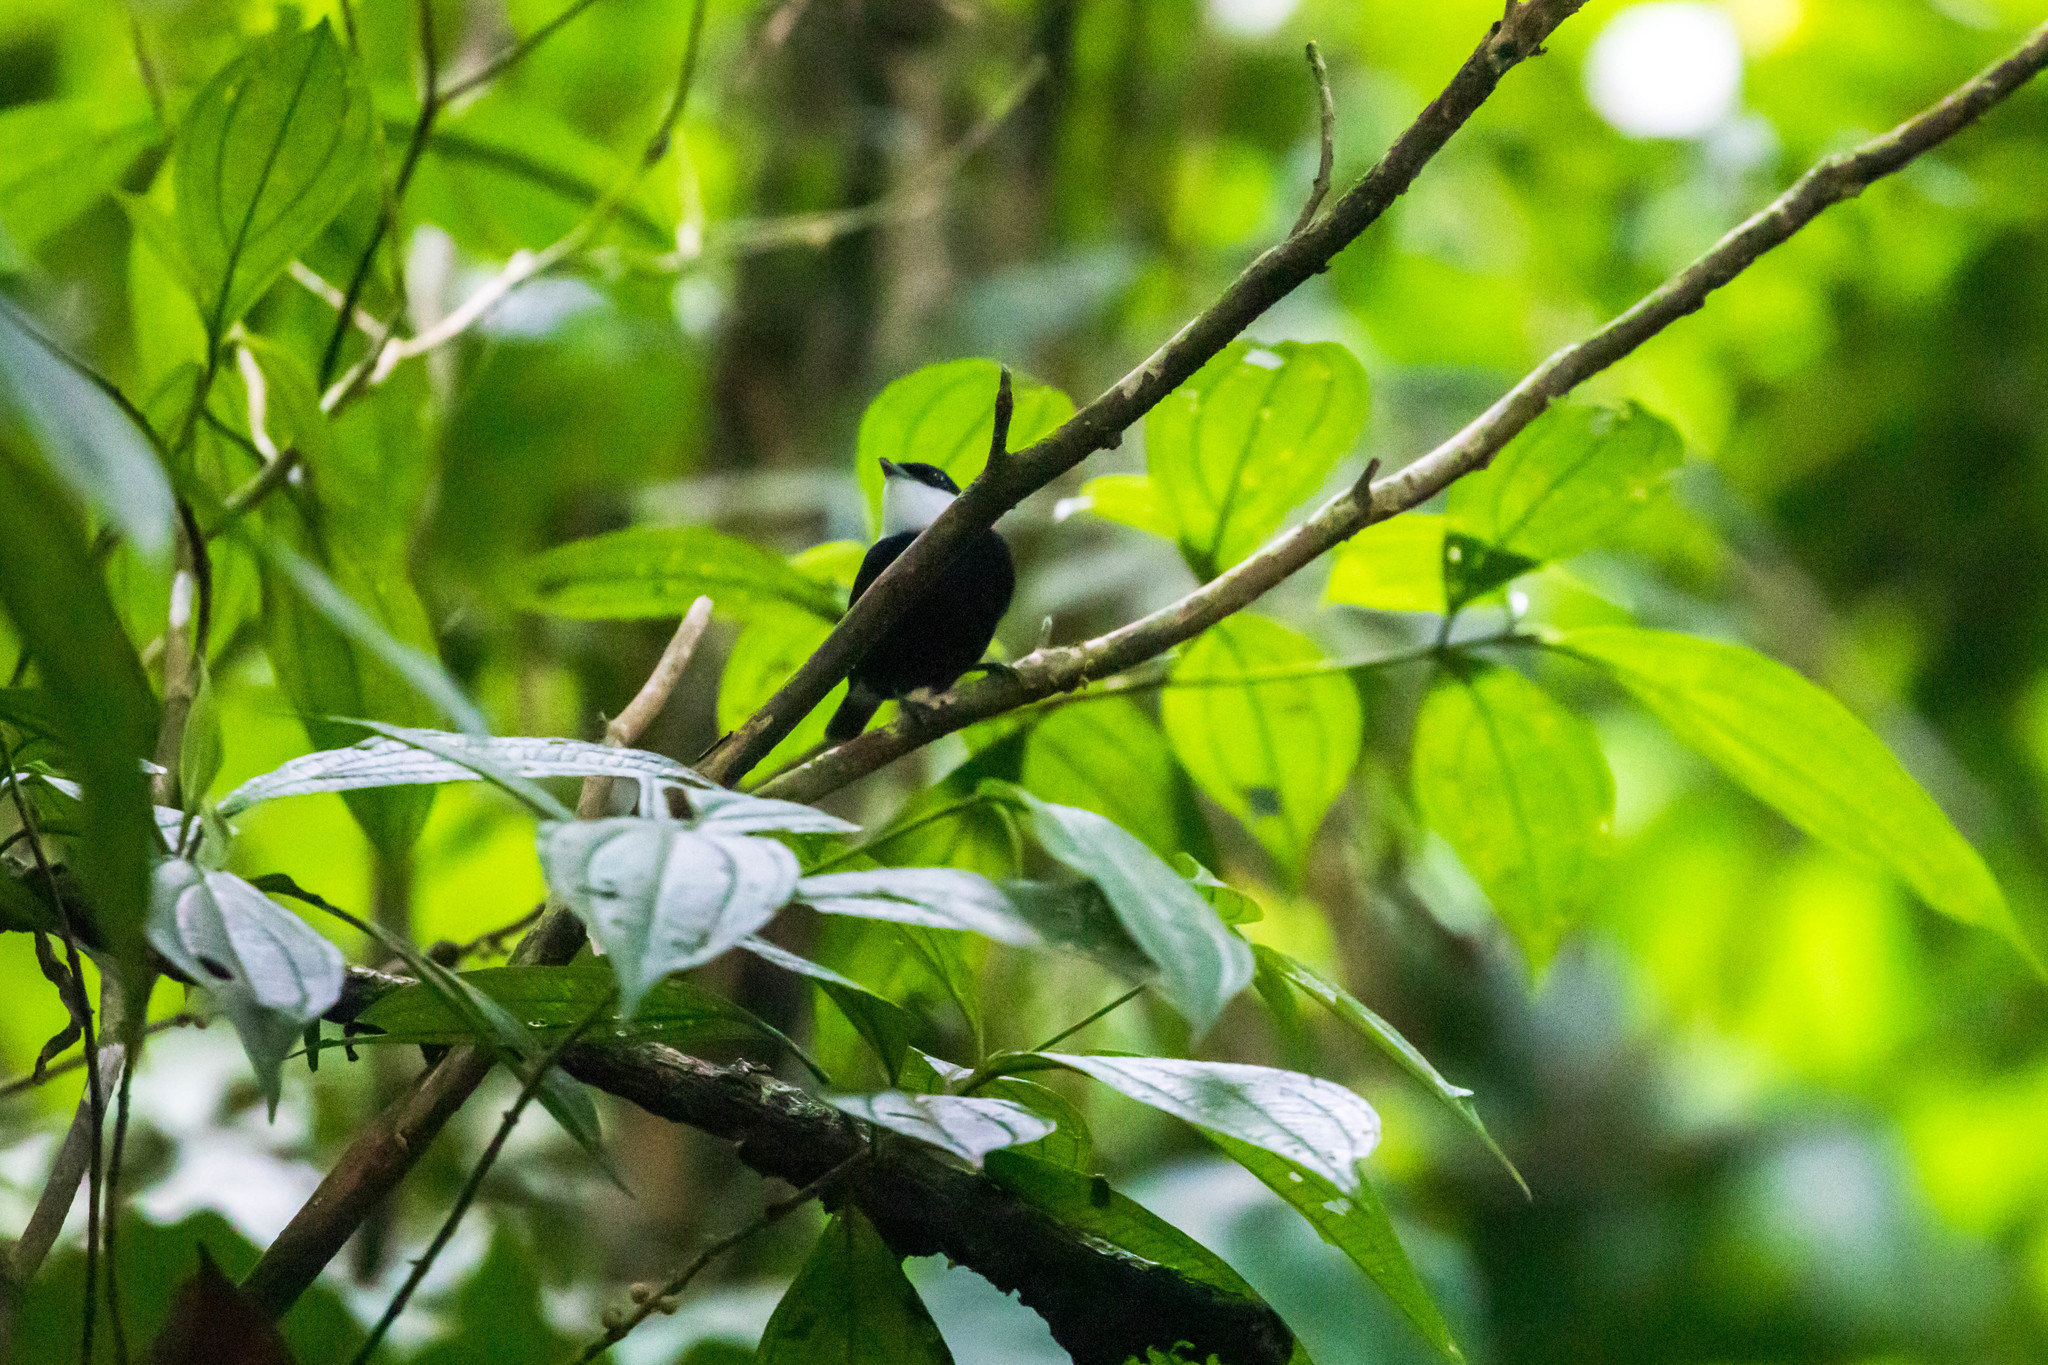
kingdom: Animalia
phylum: Chordata
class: Aves
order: Passeriformes
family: Pipridae
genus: Corapipo
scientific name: Corapipo altera
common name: White-ruffed manakin
